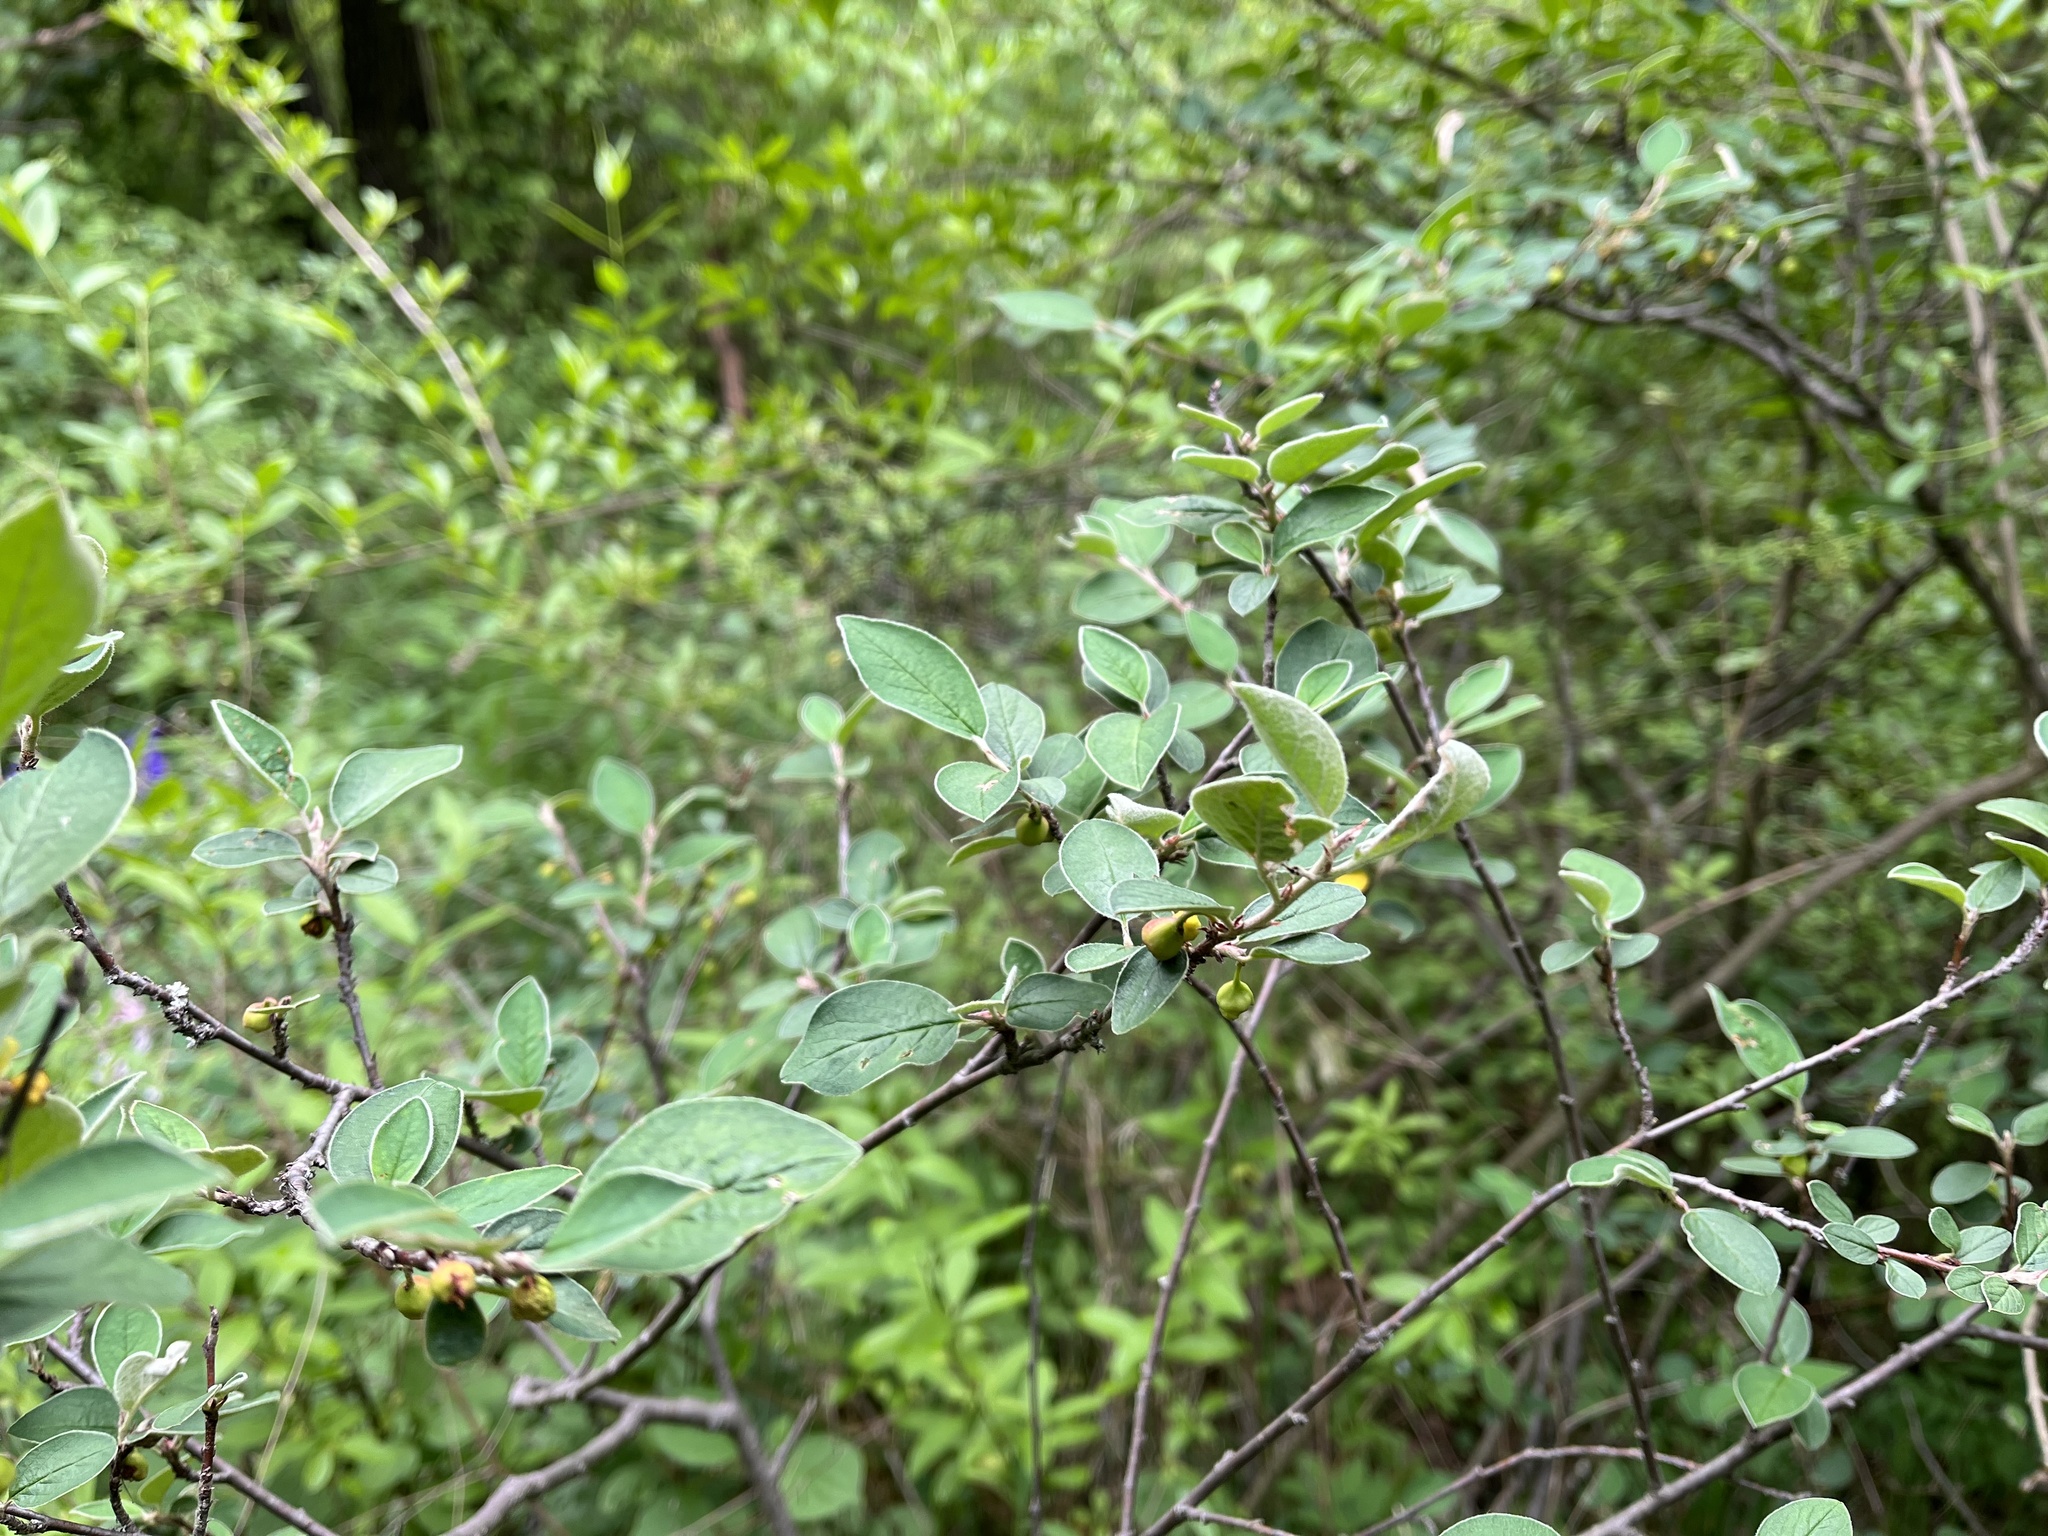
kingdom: Plantae
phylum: Tracheophyta
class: Magnoliopsida
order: Rosales
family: Rosaceae
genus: Cotoneaster
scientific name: Cotoneaster integerrimus
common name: Wild cotoneaster
